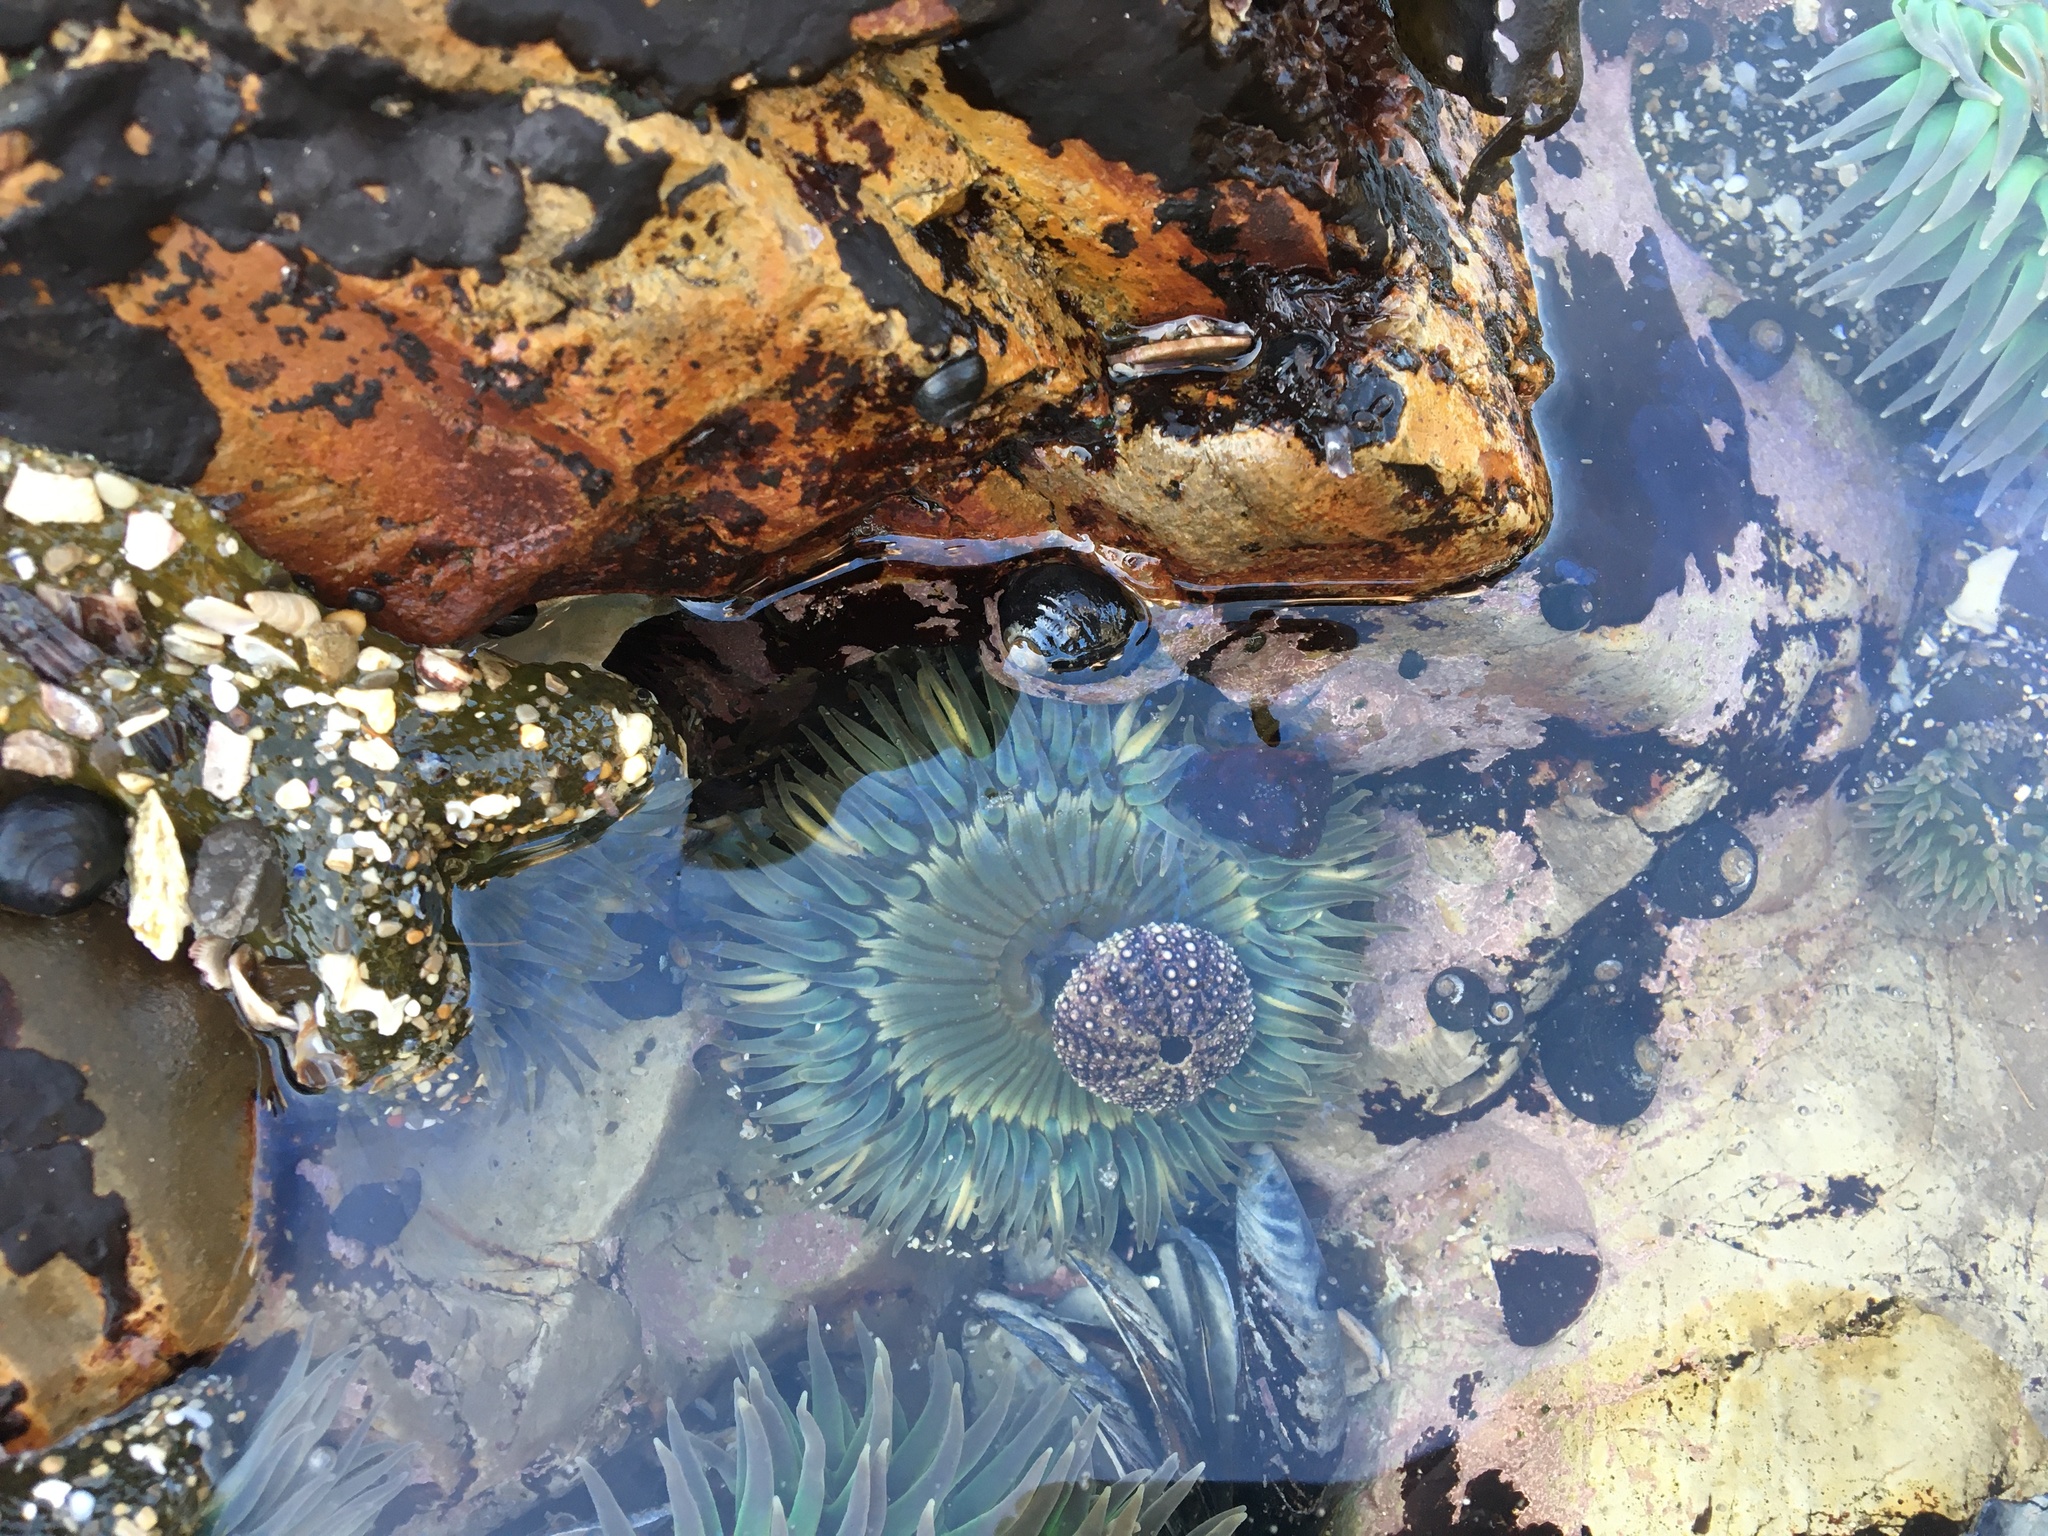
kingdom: Animalia
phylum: Echinodermata
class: Echinoidea
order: Camarodonta
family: Strongylocentrotidae
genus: Strongylocentrotus
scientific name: Strongylocentrotus purpuratus
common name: Purple sea urchin
